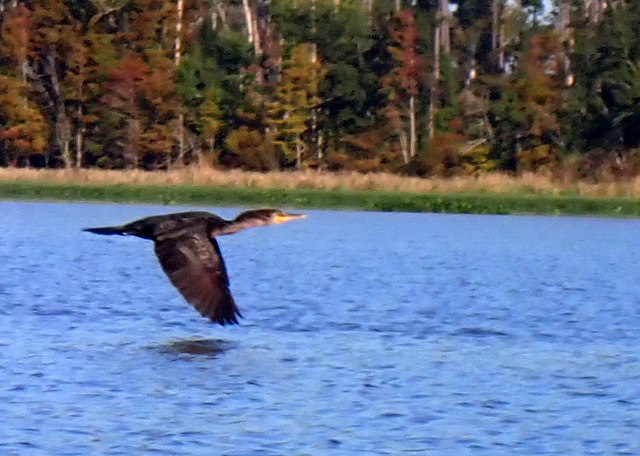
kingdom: Animalia
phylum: Chordata
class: Aves
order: Suliformes
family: Phalacrocoracidae
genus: Phalacrocorax
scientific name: Phalacrocorax auritus
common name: Double-crested cormorant
